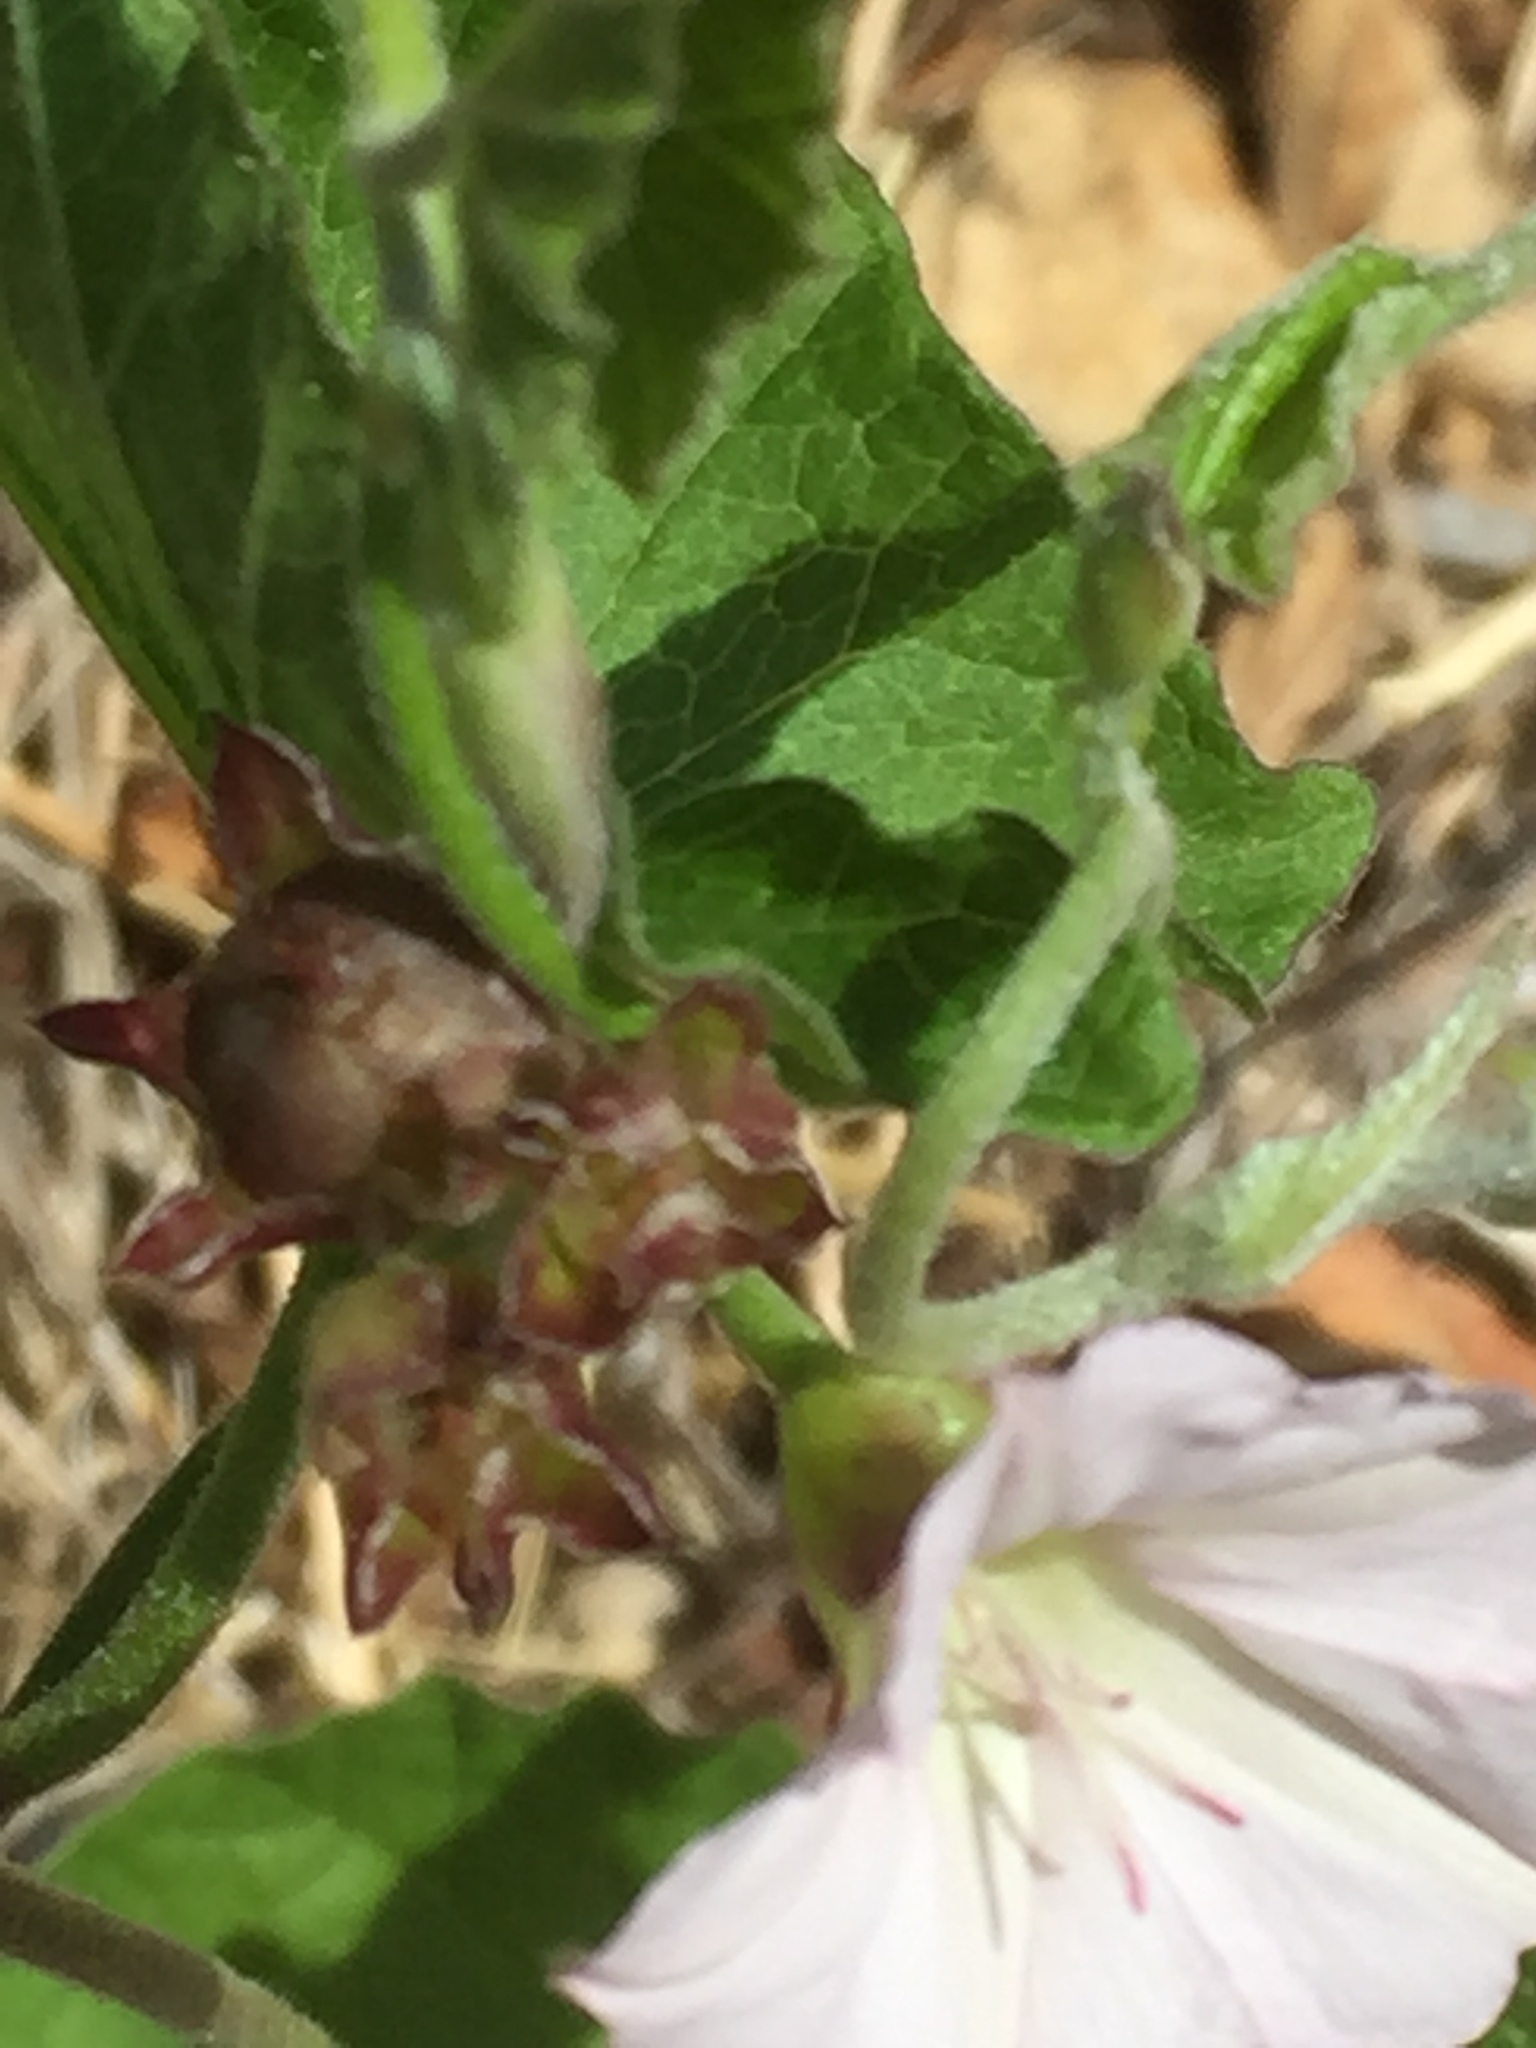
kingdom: Plantae
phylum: Tracheophyta
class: Magnoliopsida
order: Solanales
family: Convolvulaceae
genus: Convolvulus
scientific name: Convolvulus farinosus
